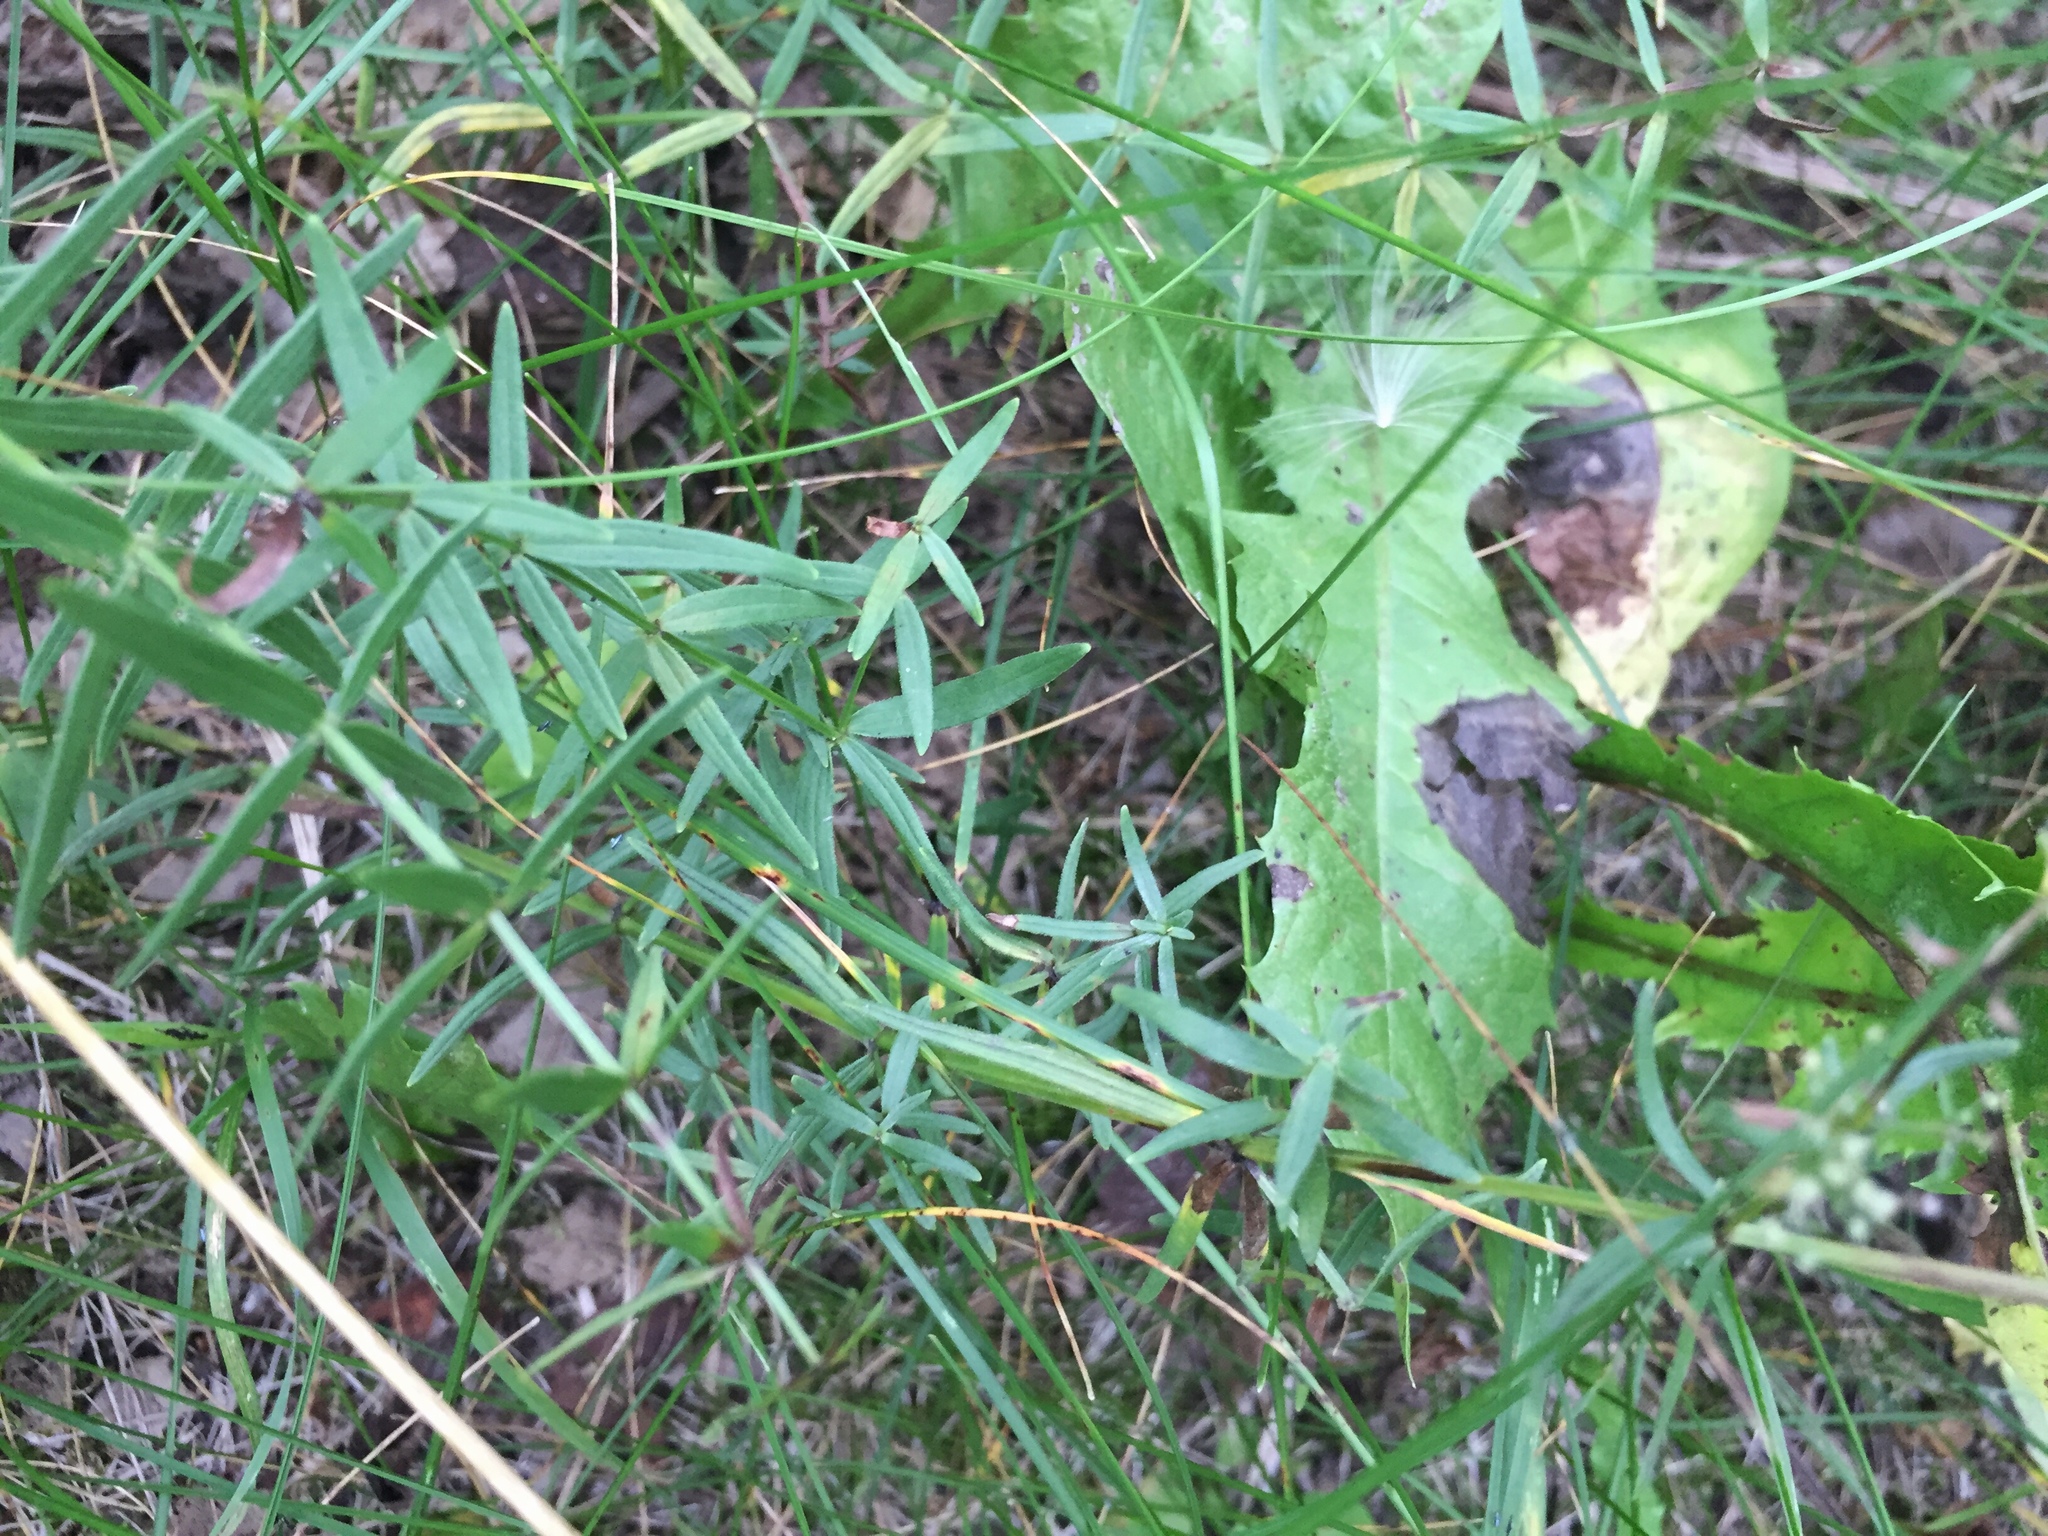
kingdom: Plantae
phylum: Tracheophyta
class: Magnoliopsida
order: Gentianales
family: Rubiaceae
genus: Galium
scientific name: Galium boreale
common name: Northern bedstraw
